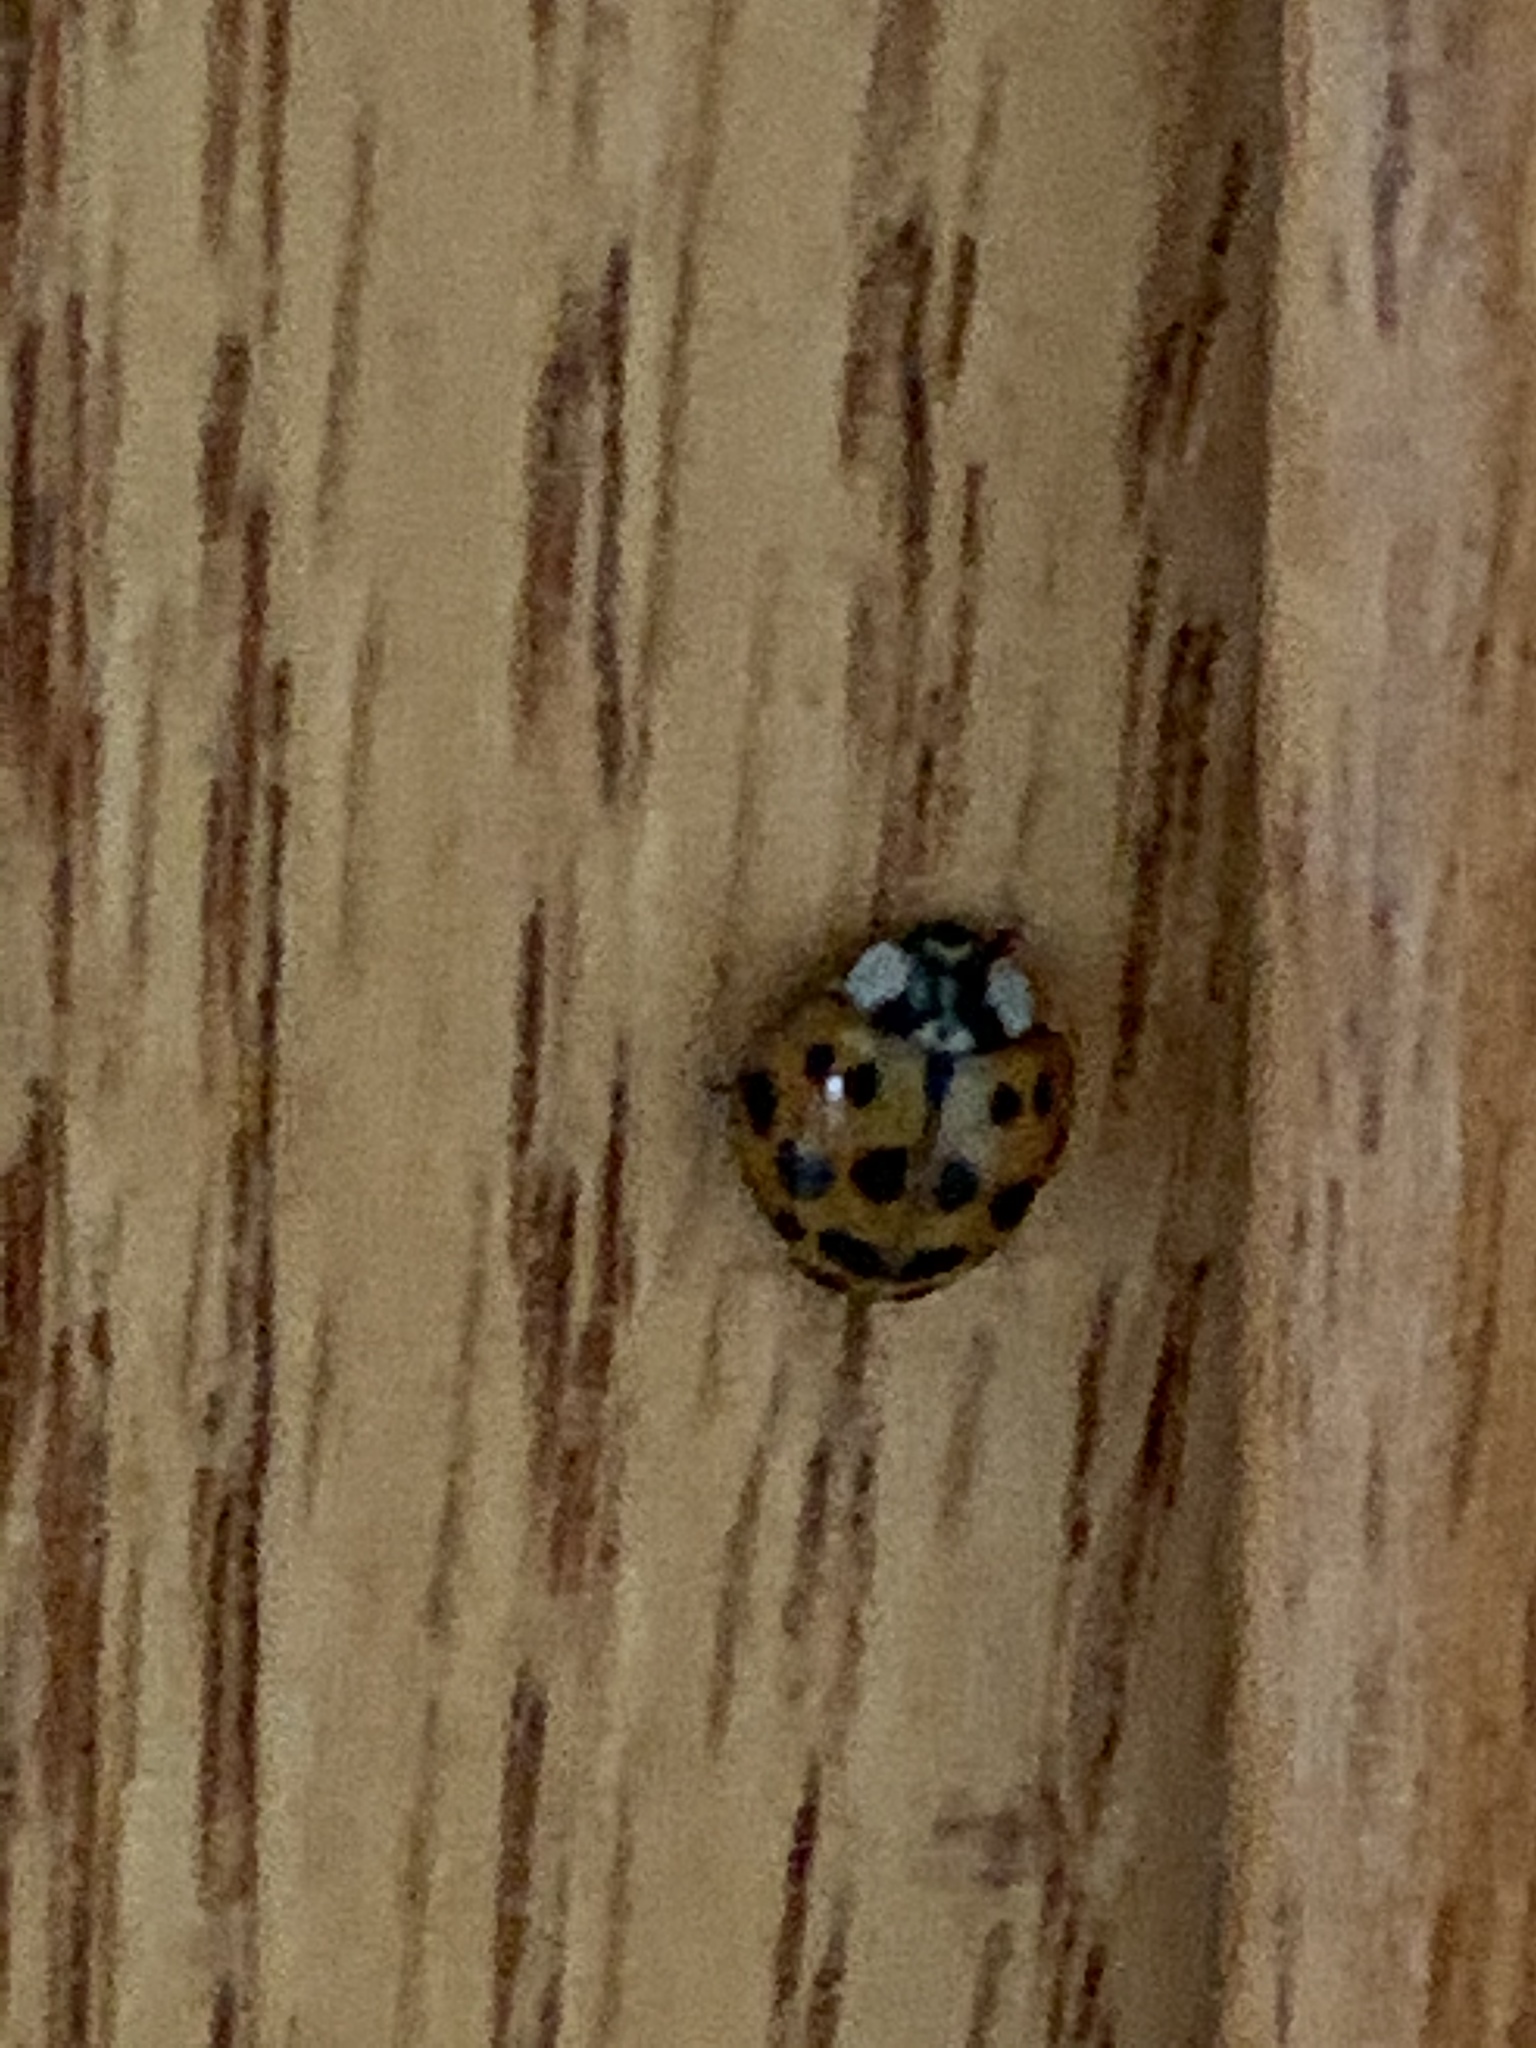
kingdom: Animalia
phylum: Arthropoda
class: Insecta
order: Coleoptera
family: Coccinellidae
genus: Harmonia
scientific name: Harmonia axyridis
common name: Harlequin ladybird
